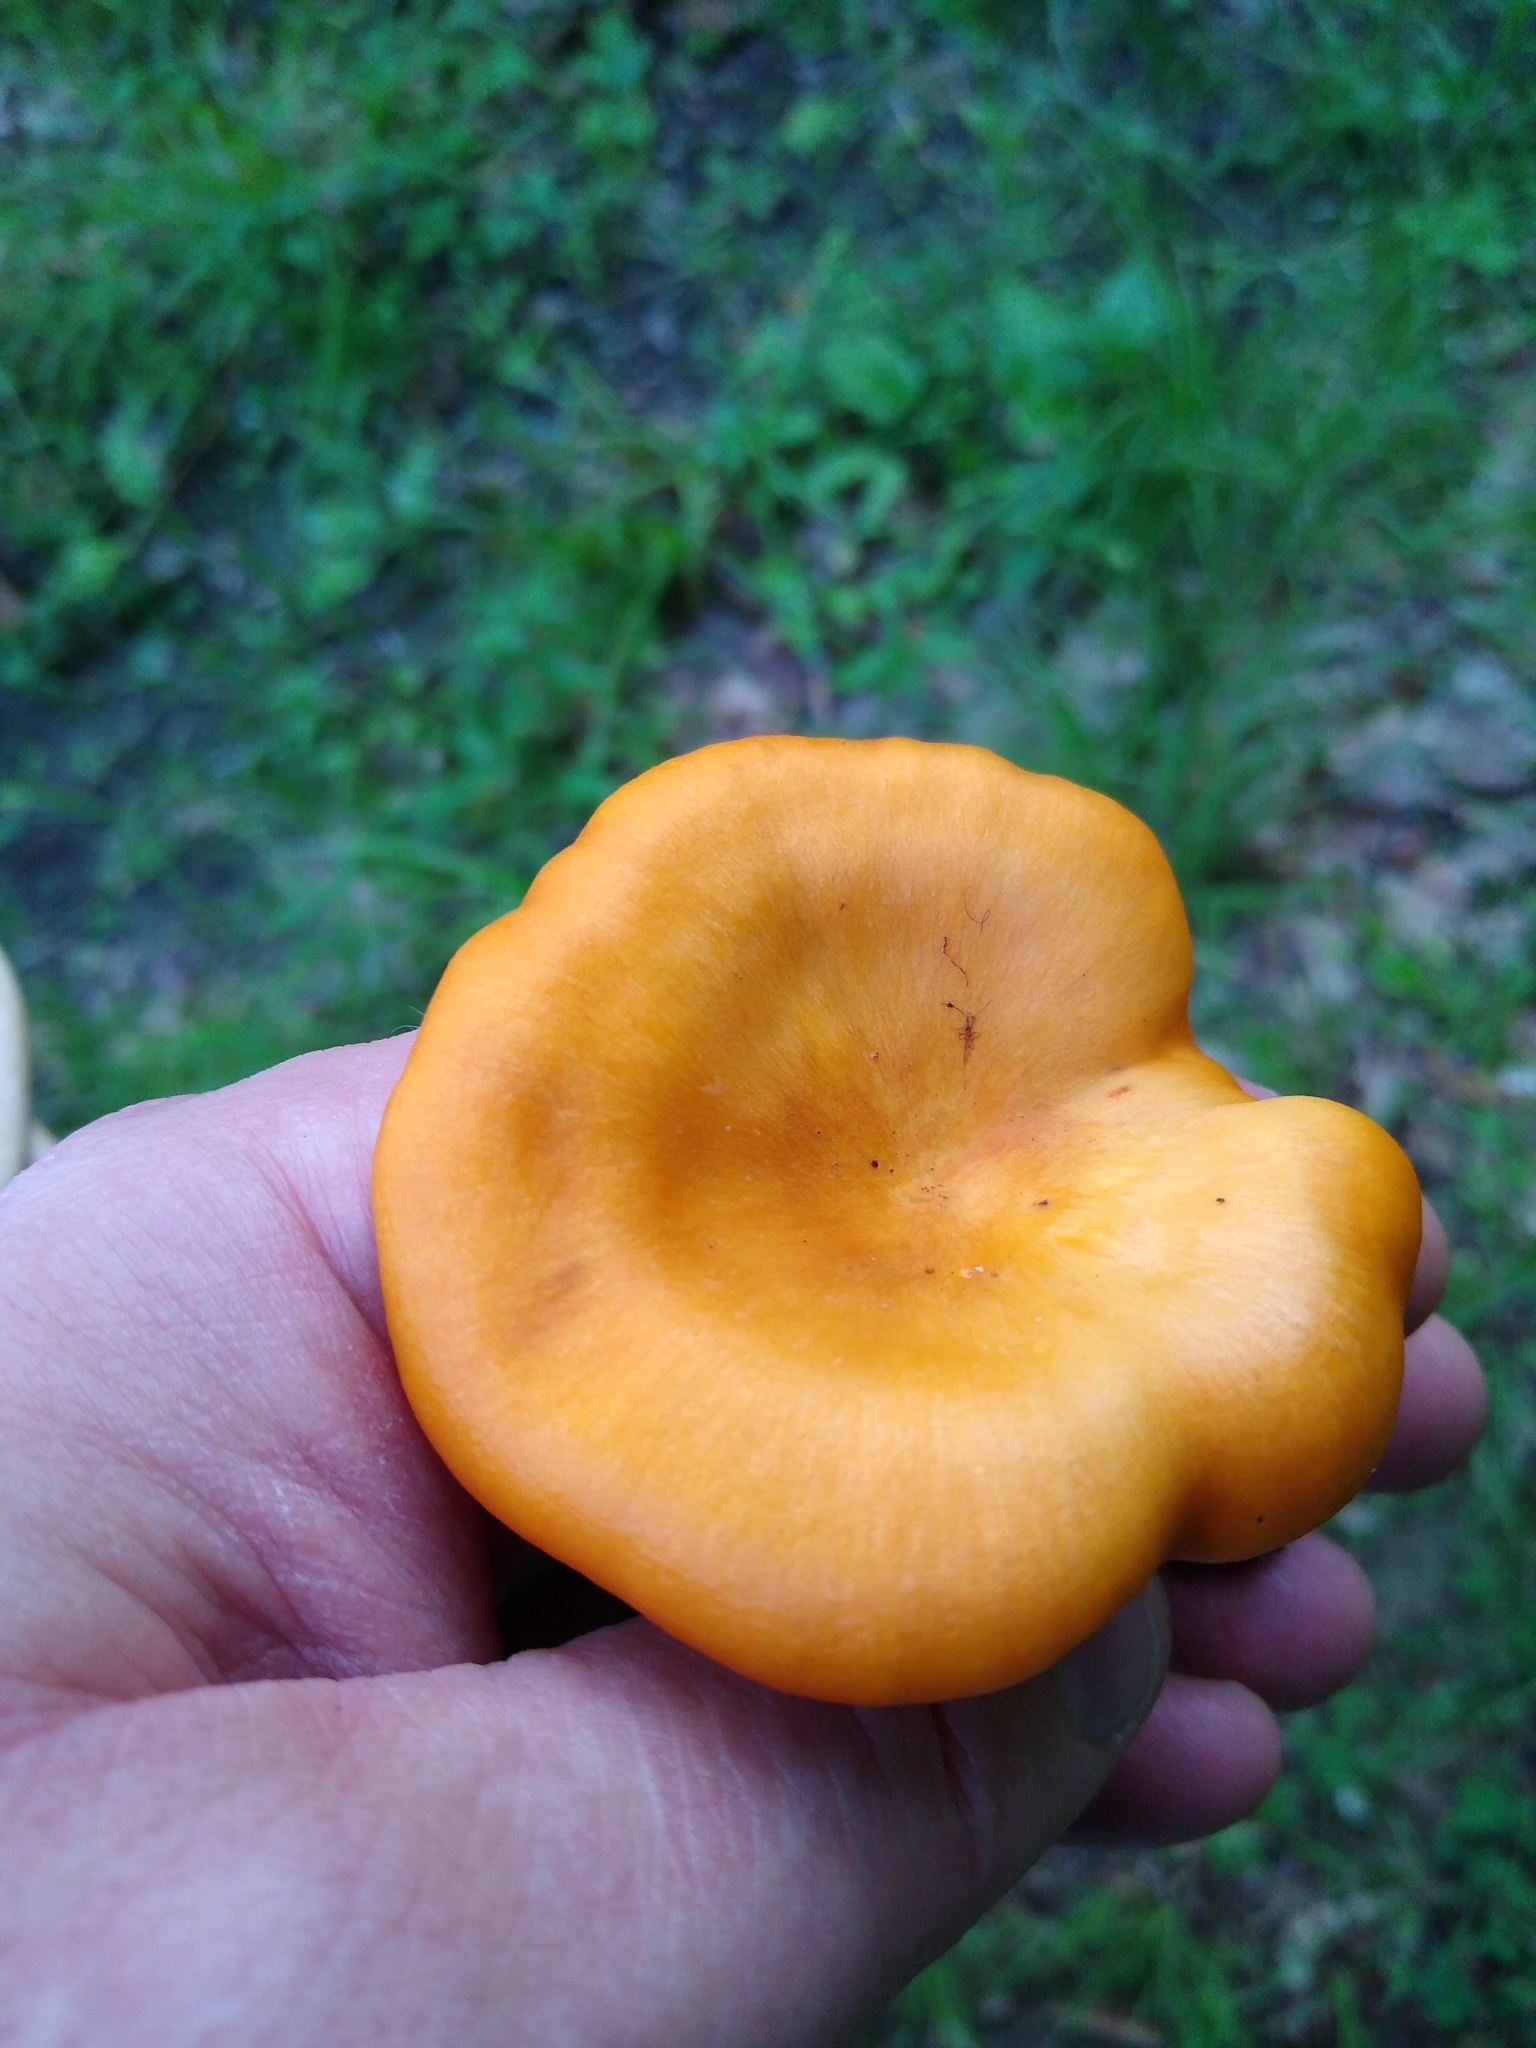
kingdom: Fungi
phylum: Basidiomycota
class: Agaricomycetes
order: Agaricales
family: Omphalotaceae
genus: Omphalotus
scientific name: Omphalotus illudens
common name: Jack o lantern
